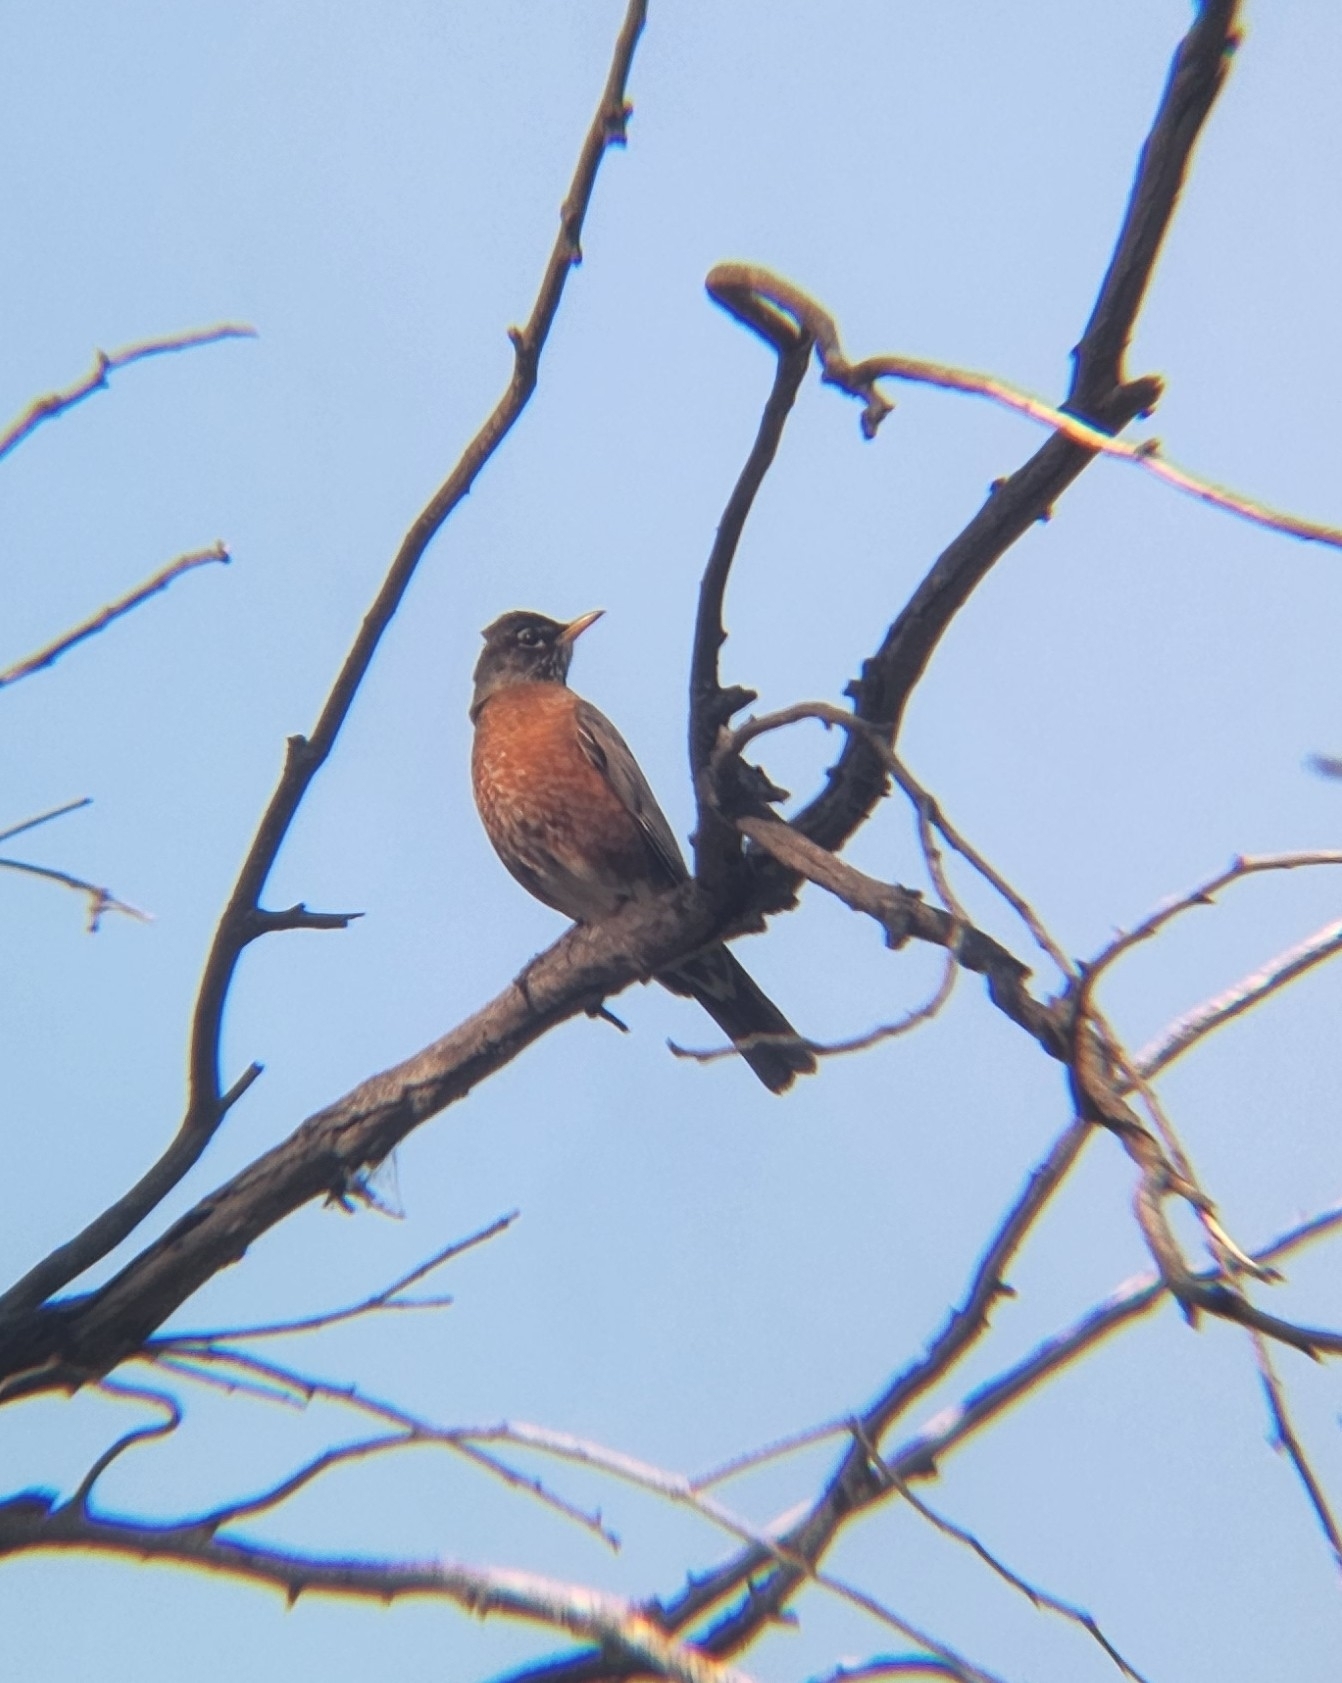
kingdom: Animalia
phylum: Chordata
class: Aves
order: Passeriformes
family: Turdidae
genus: Turdus
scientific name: Turdus migratorius
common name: American robin
